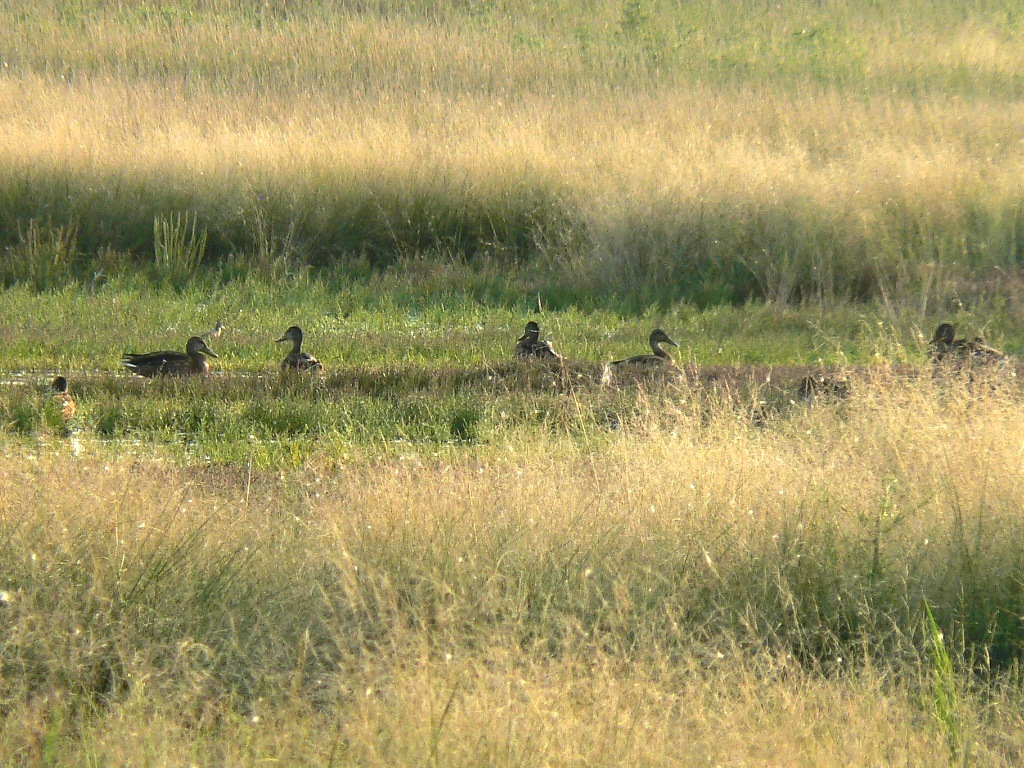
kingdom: Animalia
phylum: Chordata
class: Aves
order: Anseriformes
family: Anatidae
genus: Anas
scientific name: Anas platyrhynchos
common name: Mallard
